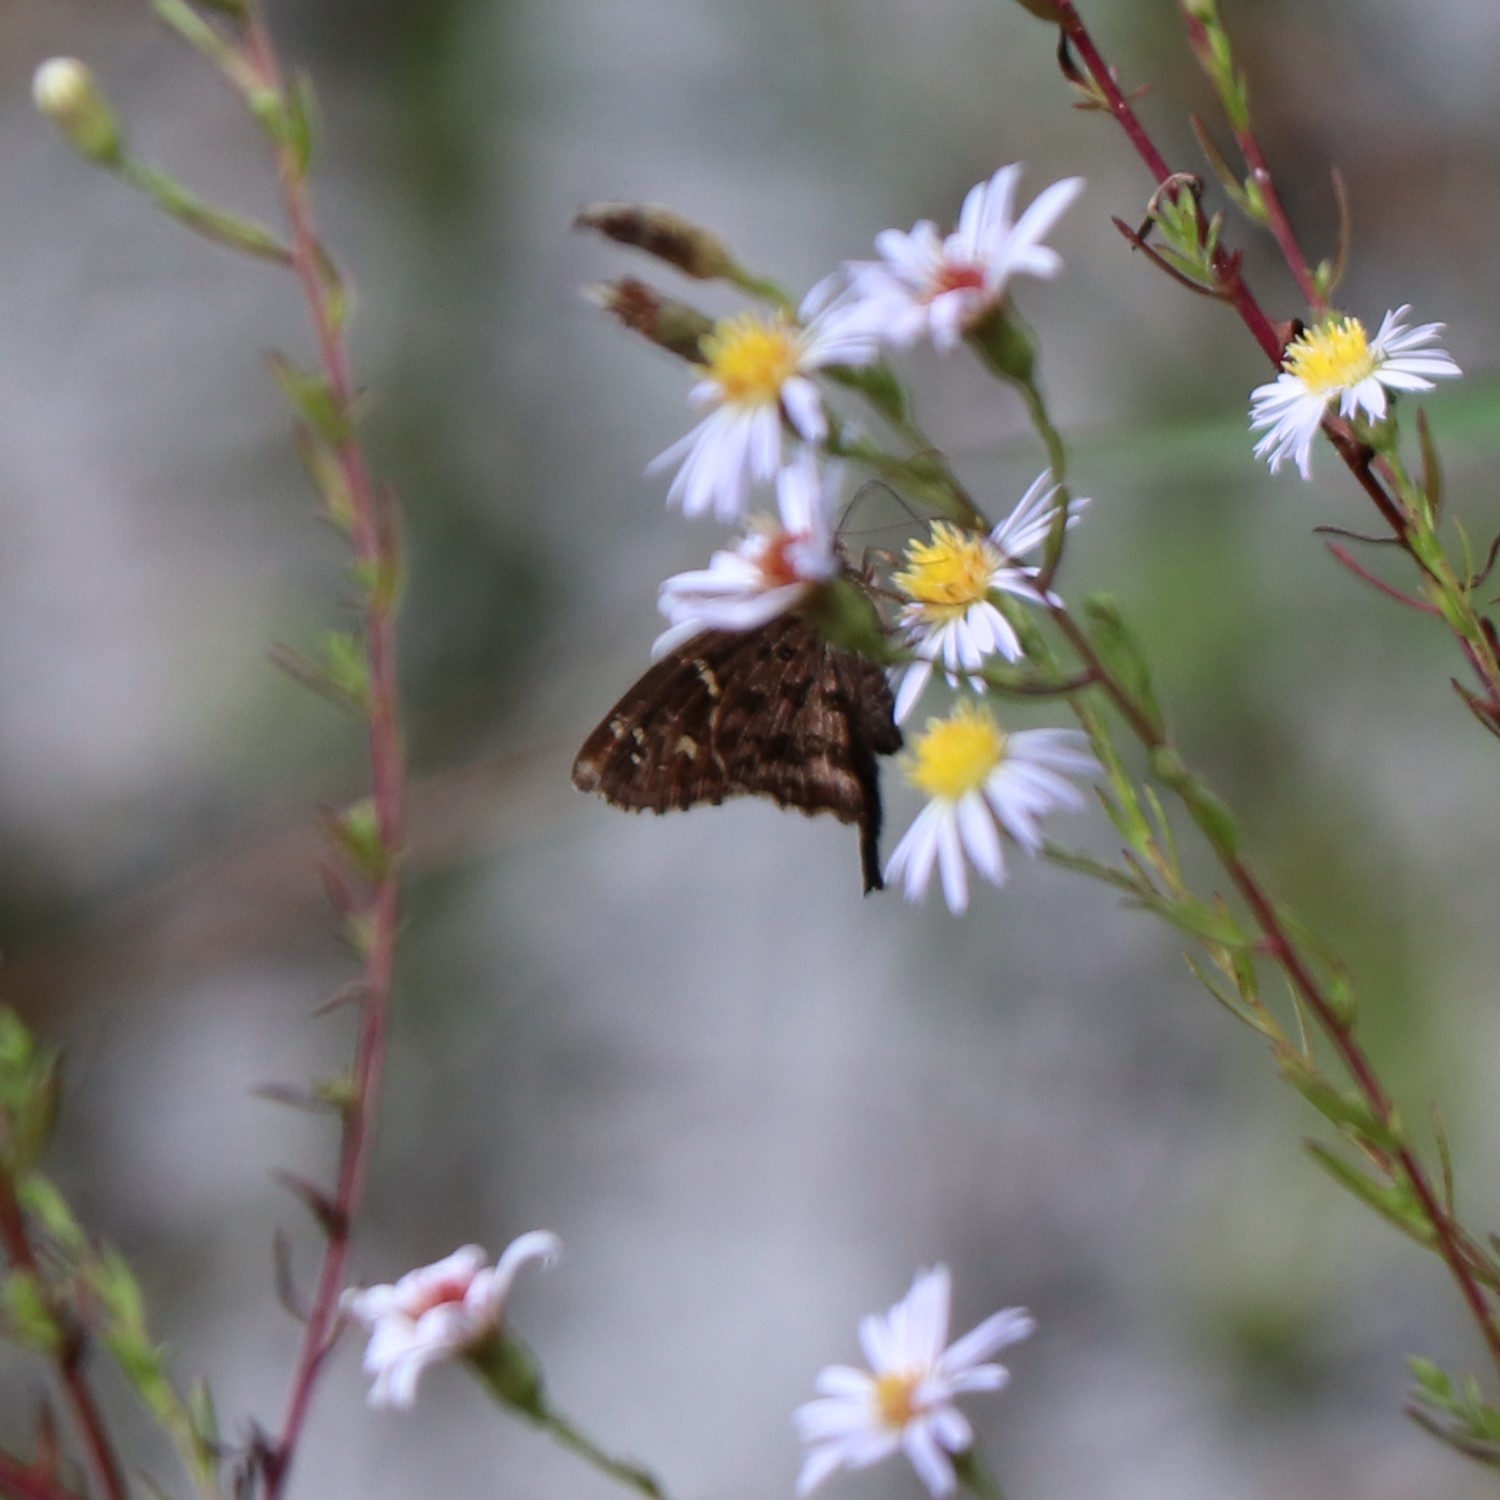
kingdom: Animalia
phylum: Arthropoda
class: Insecta
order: Lepidoptera
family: Hesperiidae
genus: Thorybes
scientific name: Thorybes
